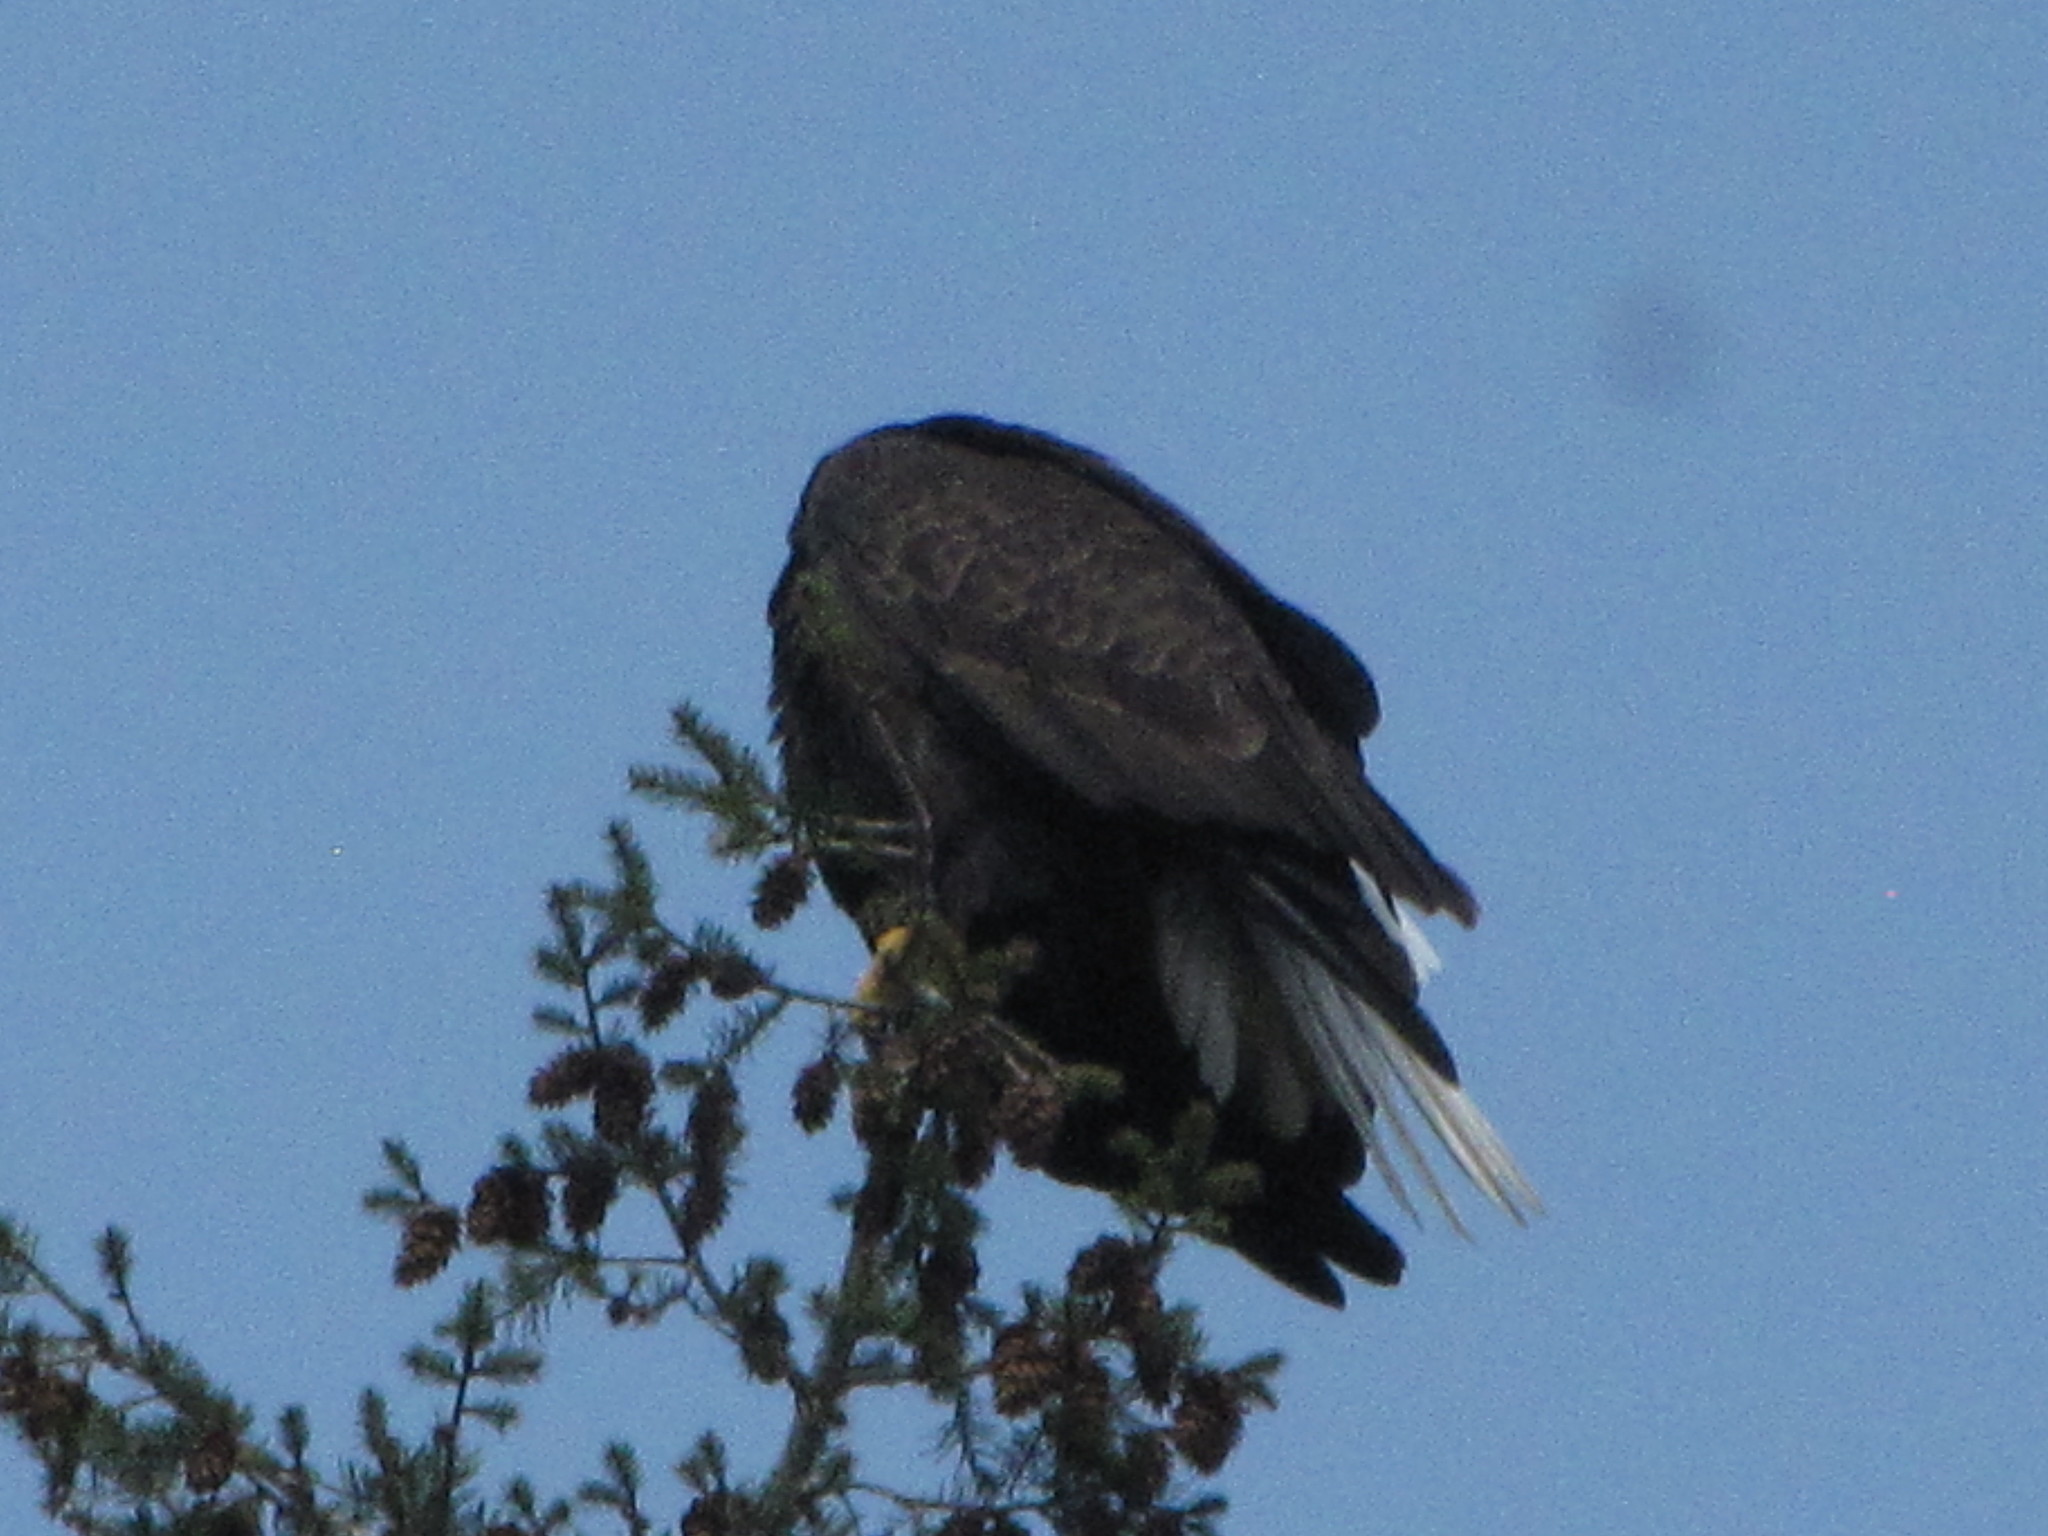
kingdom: Animalia
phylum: Chordata
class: Aves
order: Accipitriformes
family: Accipitridae
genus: Haliaeetus
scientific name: Haliaeetus leucocephalus
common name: Bald eagle
